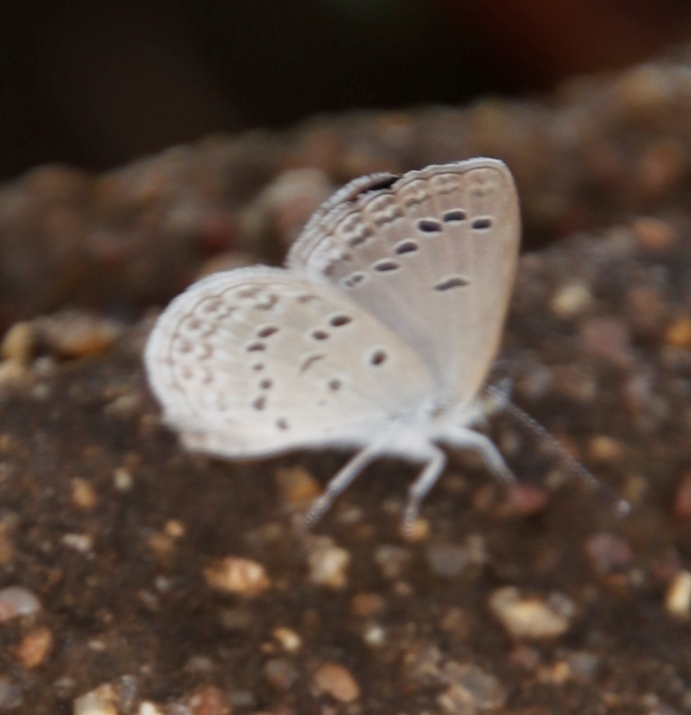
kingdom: Animalia
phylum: Arthropoda
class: Insecta
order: Lepidoptera
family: Lycaenidae
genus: Zizina
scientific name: Zizina antanossa
